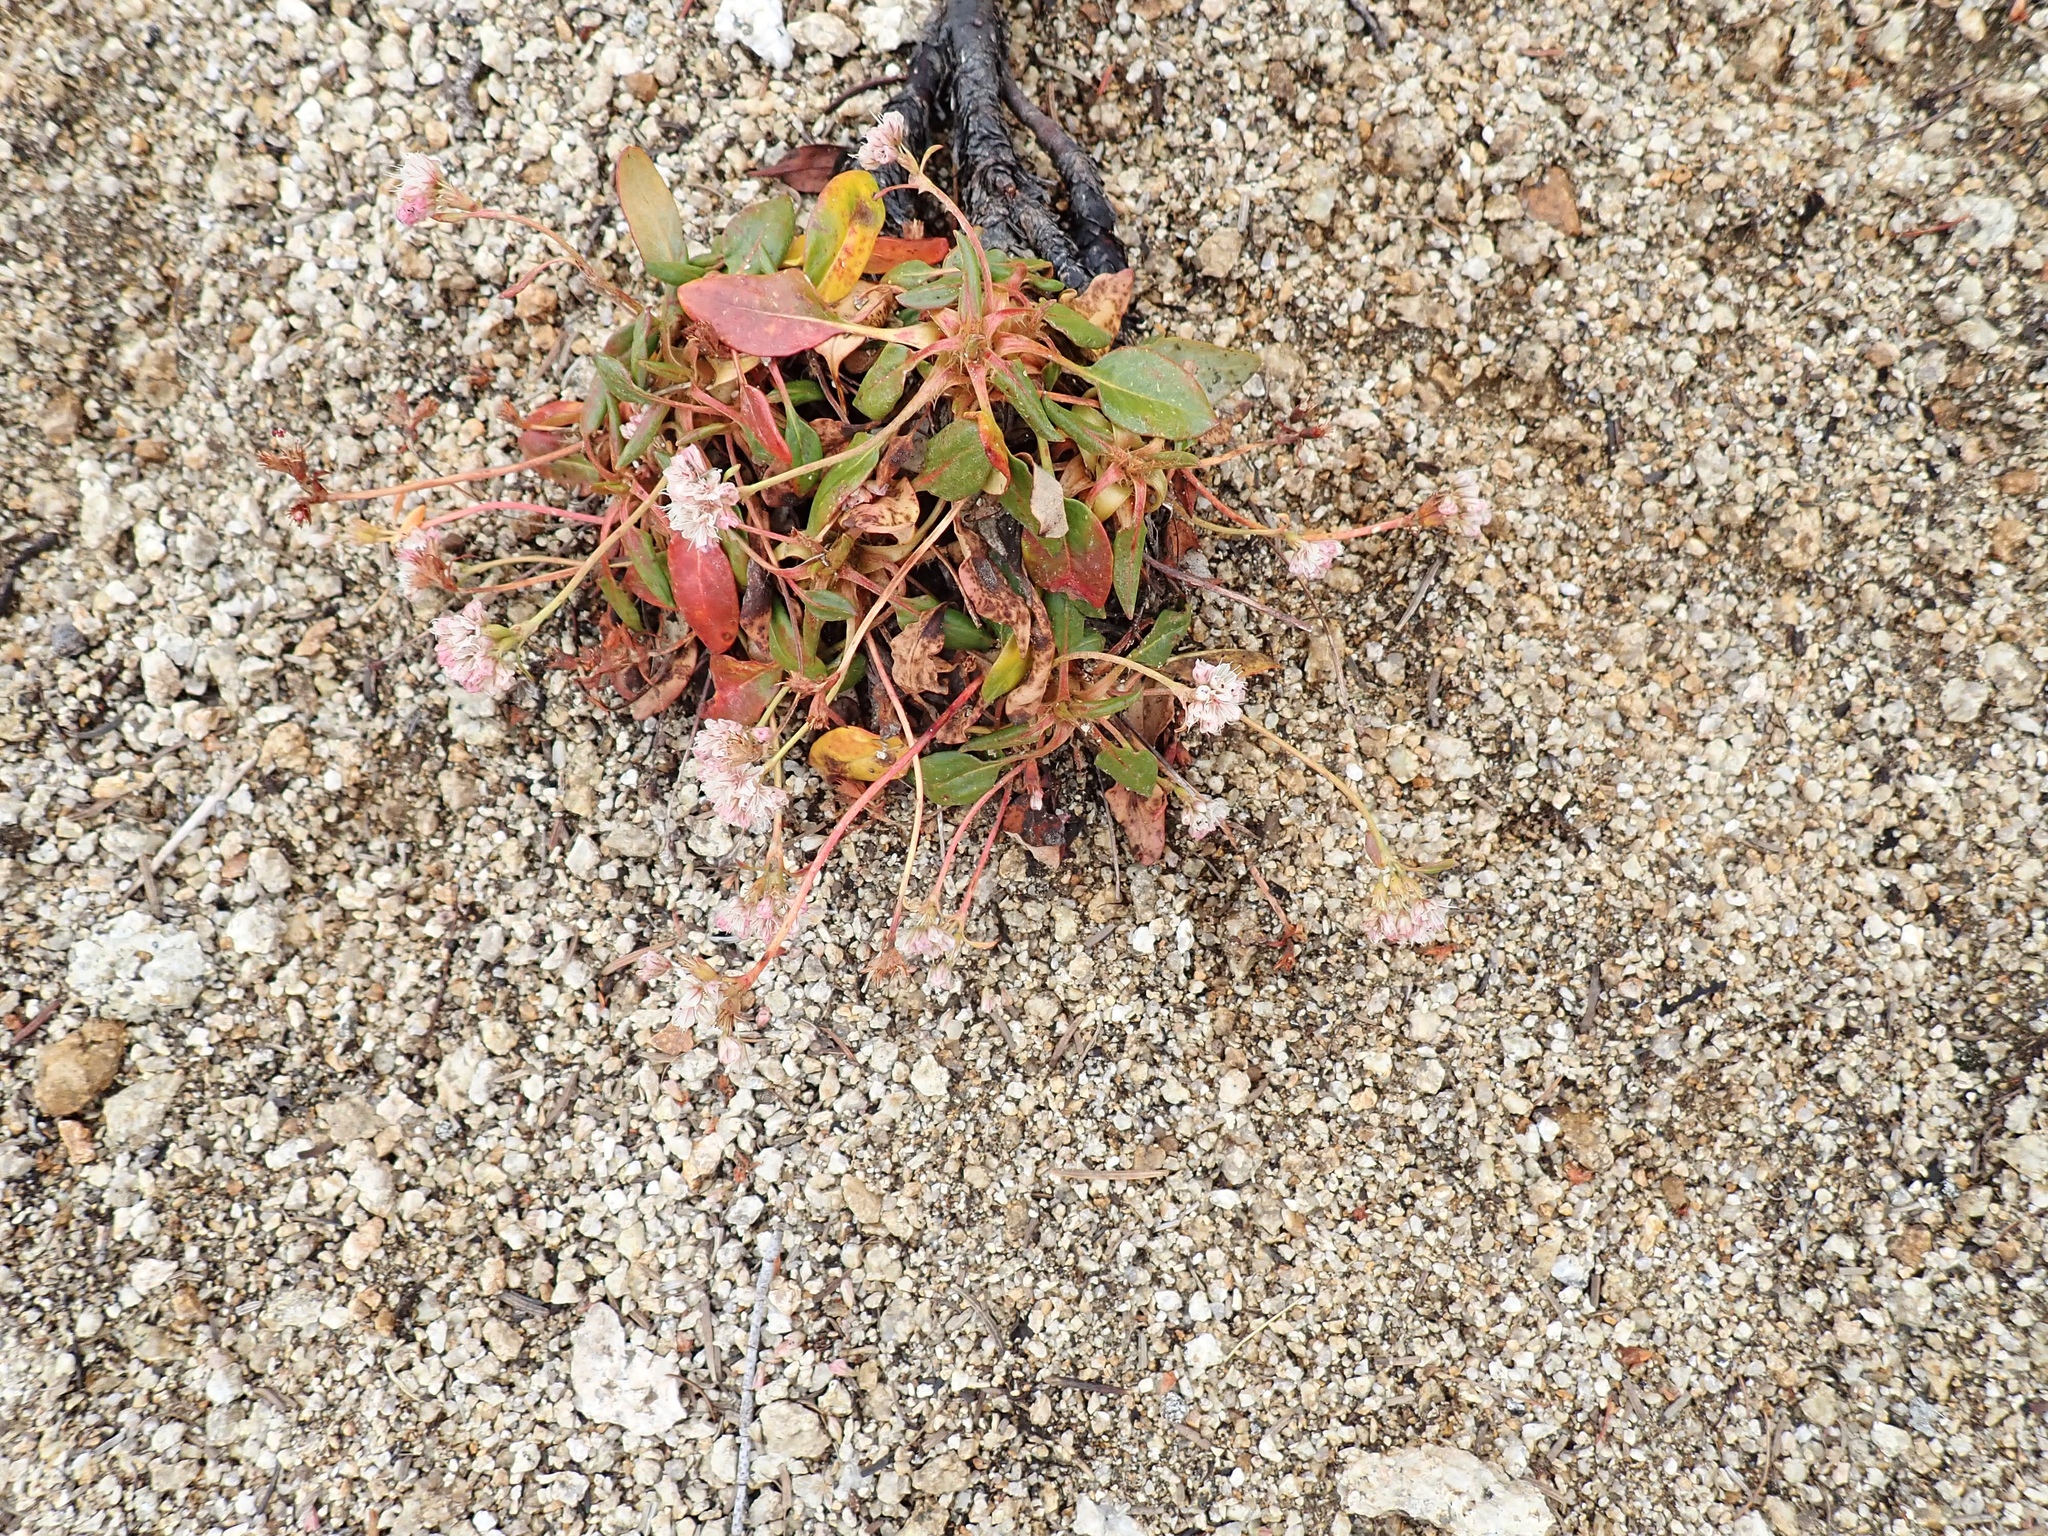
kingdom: Plantae
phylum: Tracheophyta
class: Magnoliopsida
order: Caryophyllales
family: Polygonaceae
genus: Eriogonum
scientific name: Eriogonum pyrolifolium
